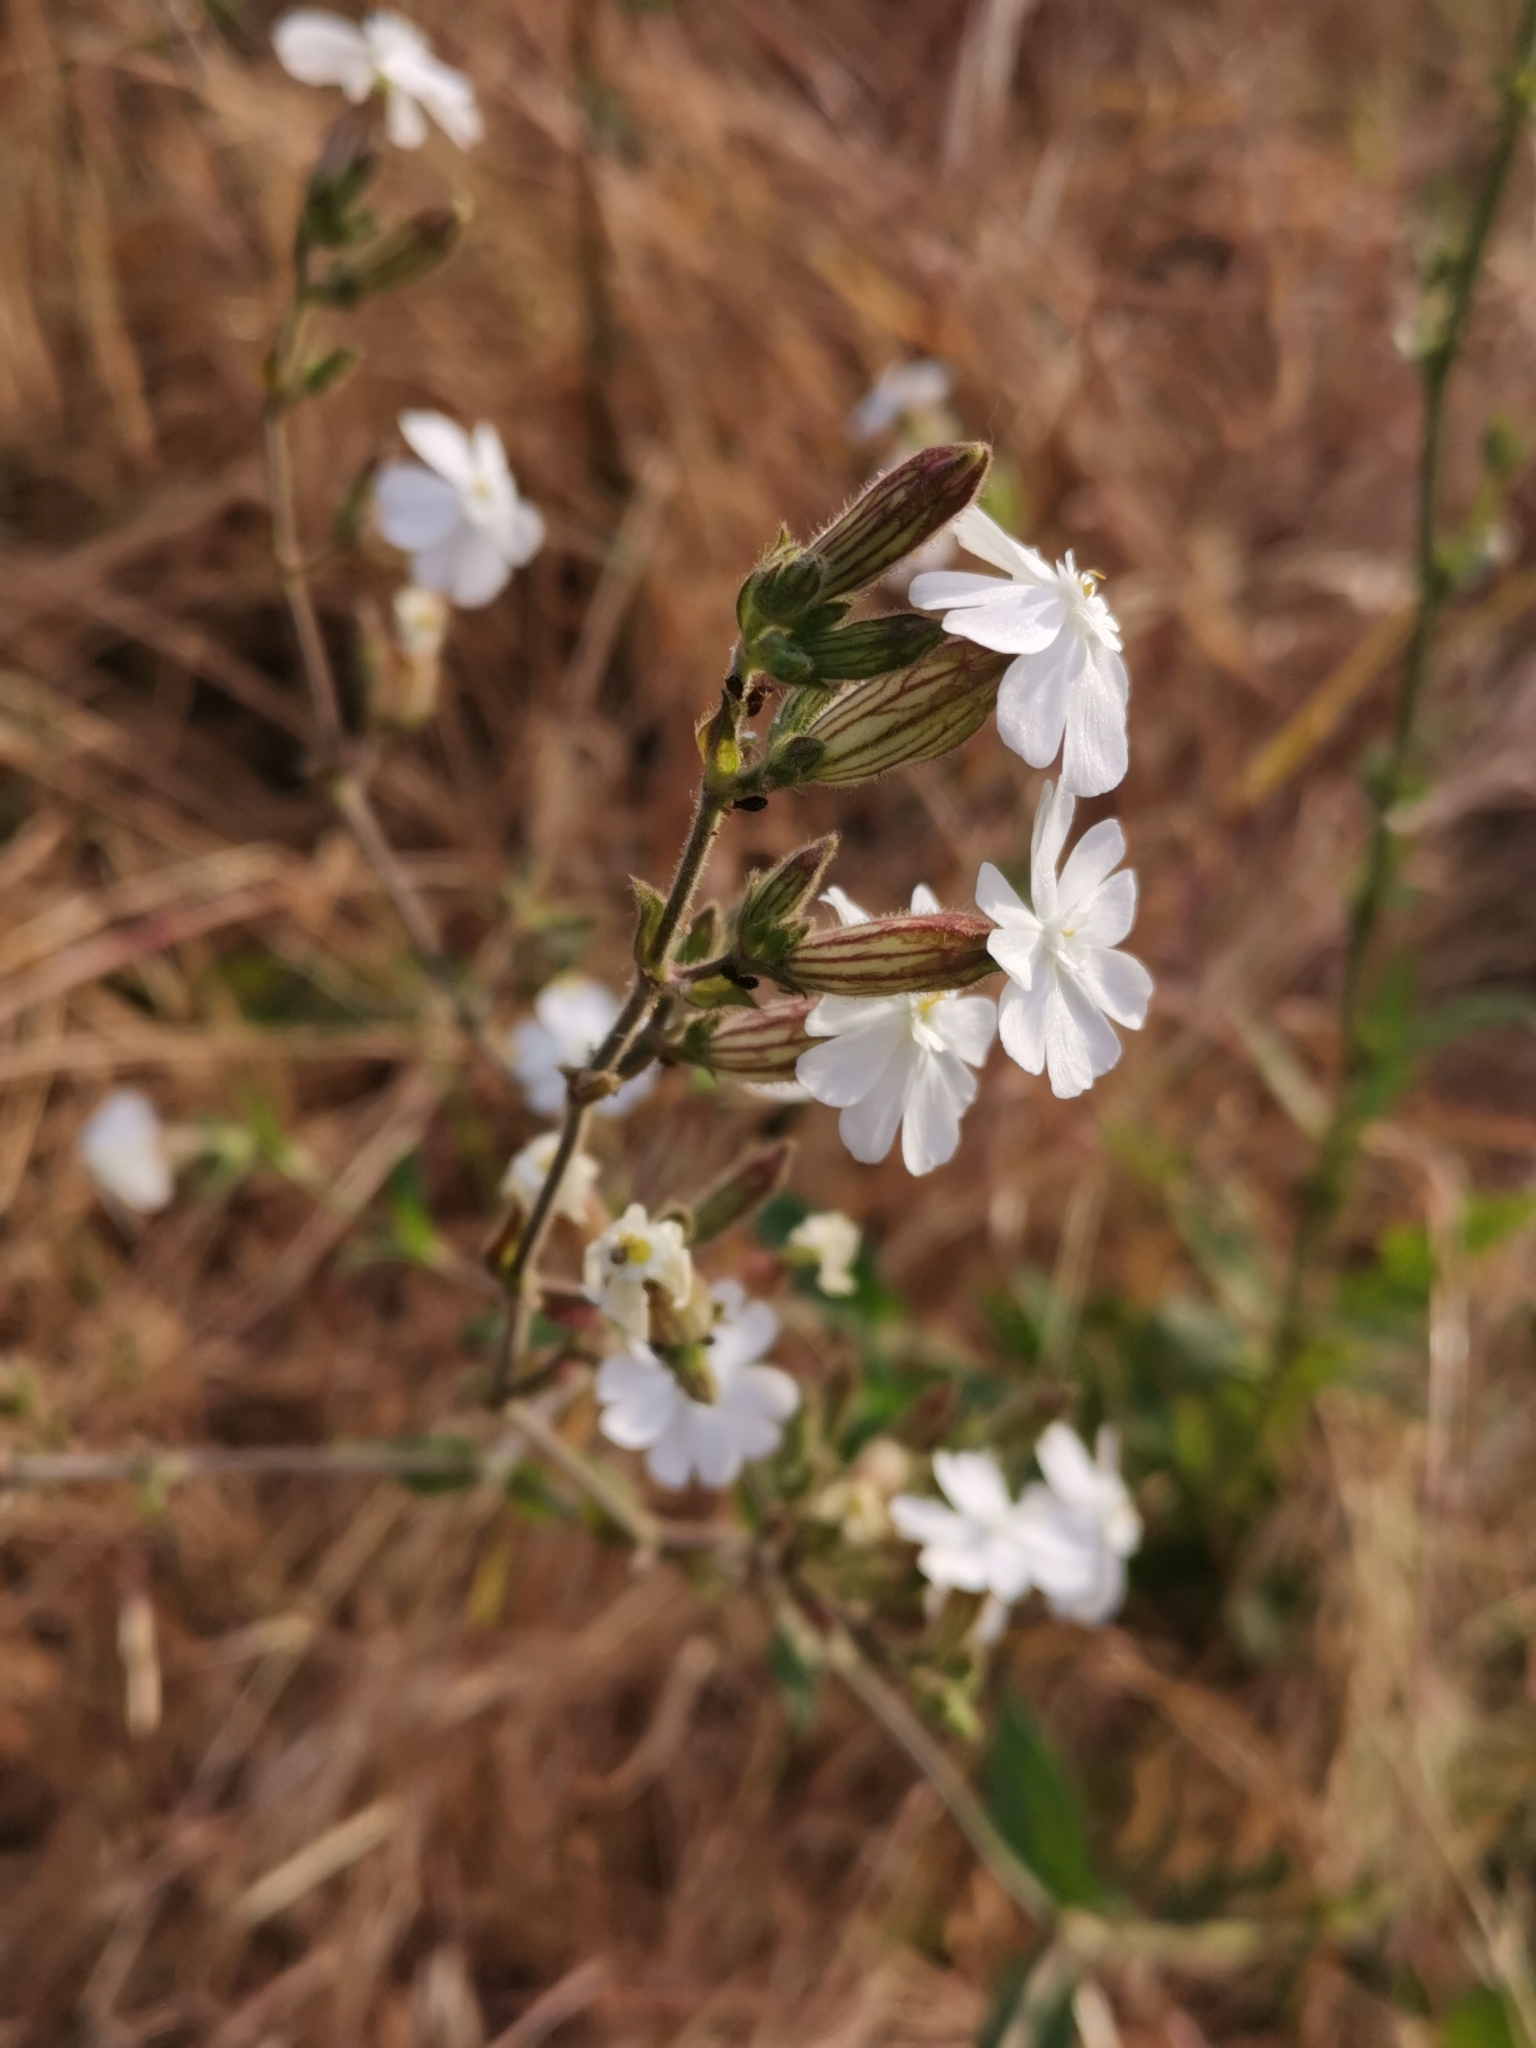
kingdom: Plantae
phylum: Tracheophyta
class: Magnoliopsida
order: Caryophyllales
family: Caryophyllaceae
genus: Silene
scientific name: Silene latifolia
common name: White campion
